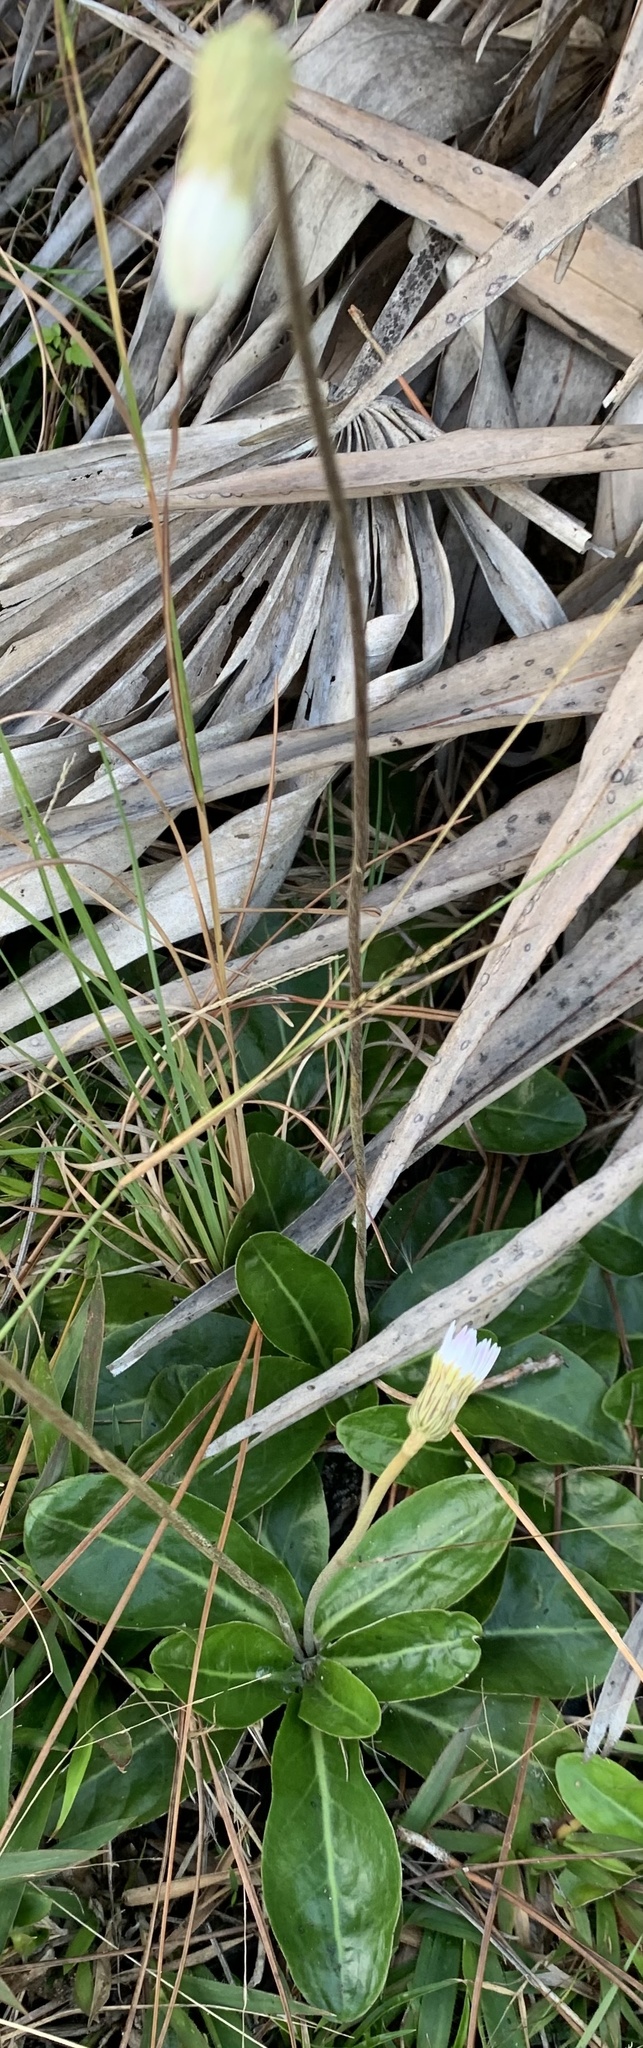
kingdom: Plantae
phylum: Tracheophyta
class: Magnoliopsida
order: Asterales
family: Asteraceae
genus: Chaptalia
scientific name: Chaptalia tomentosa
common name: Woolly sunbonnet
